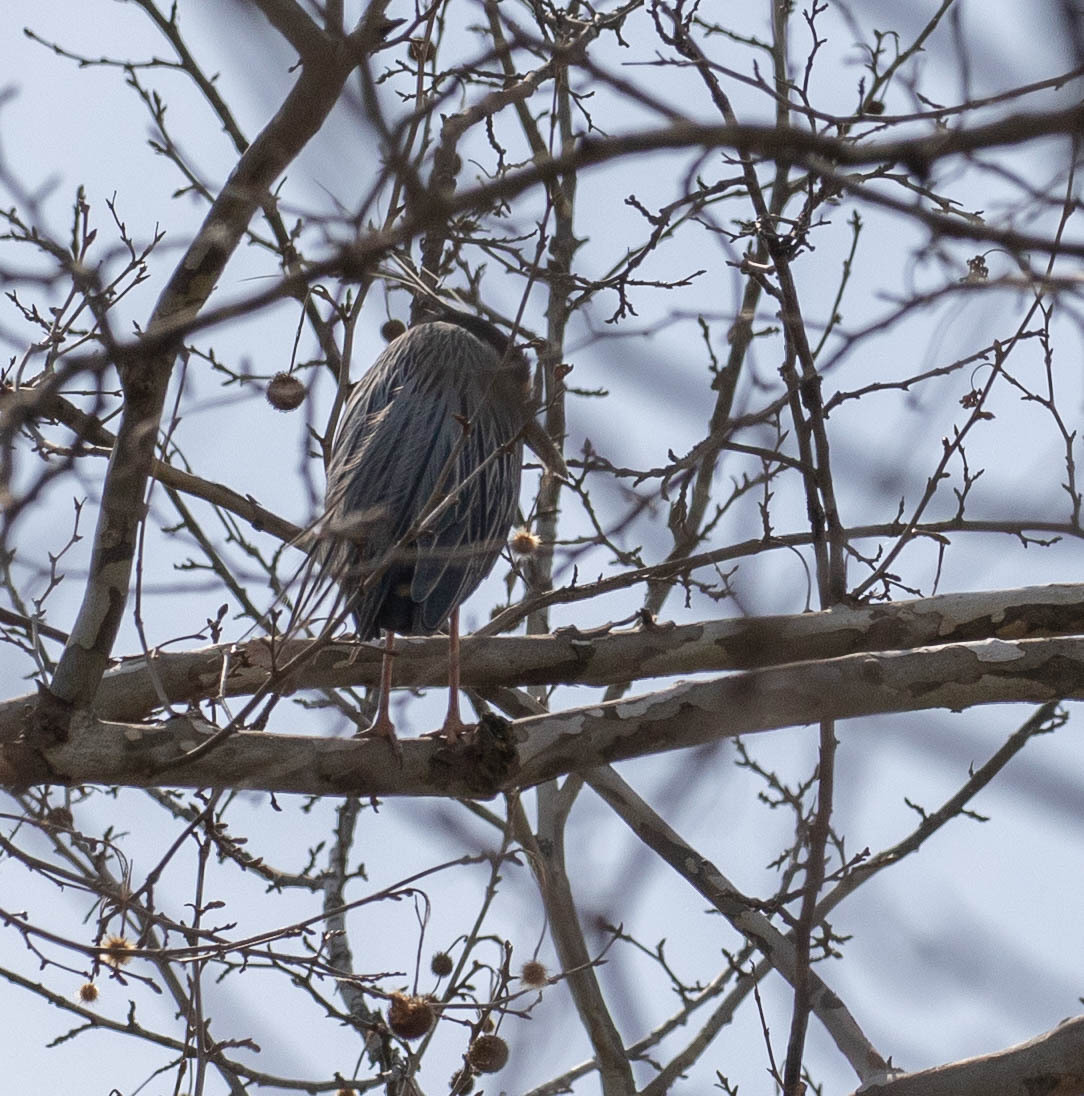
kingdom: Animalia
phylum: Chordata
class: Aves
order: Pelecaniformes
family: Ardeidae
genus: Nyctanassa
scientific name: Nyctanassa violacea
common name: Yellow-crowned night heron
